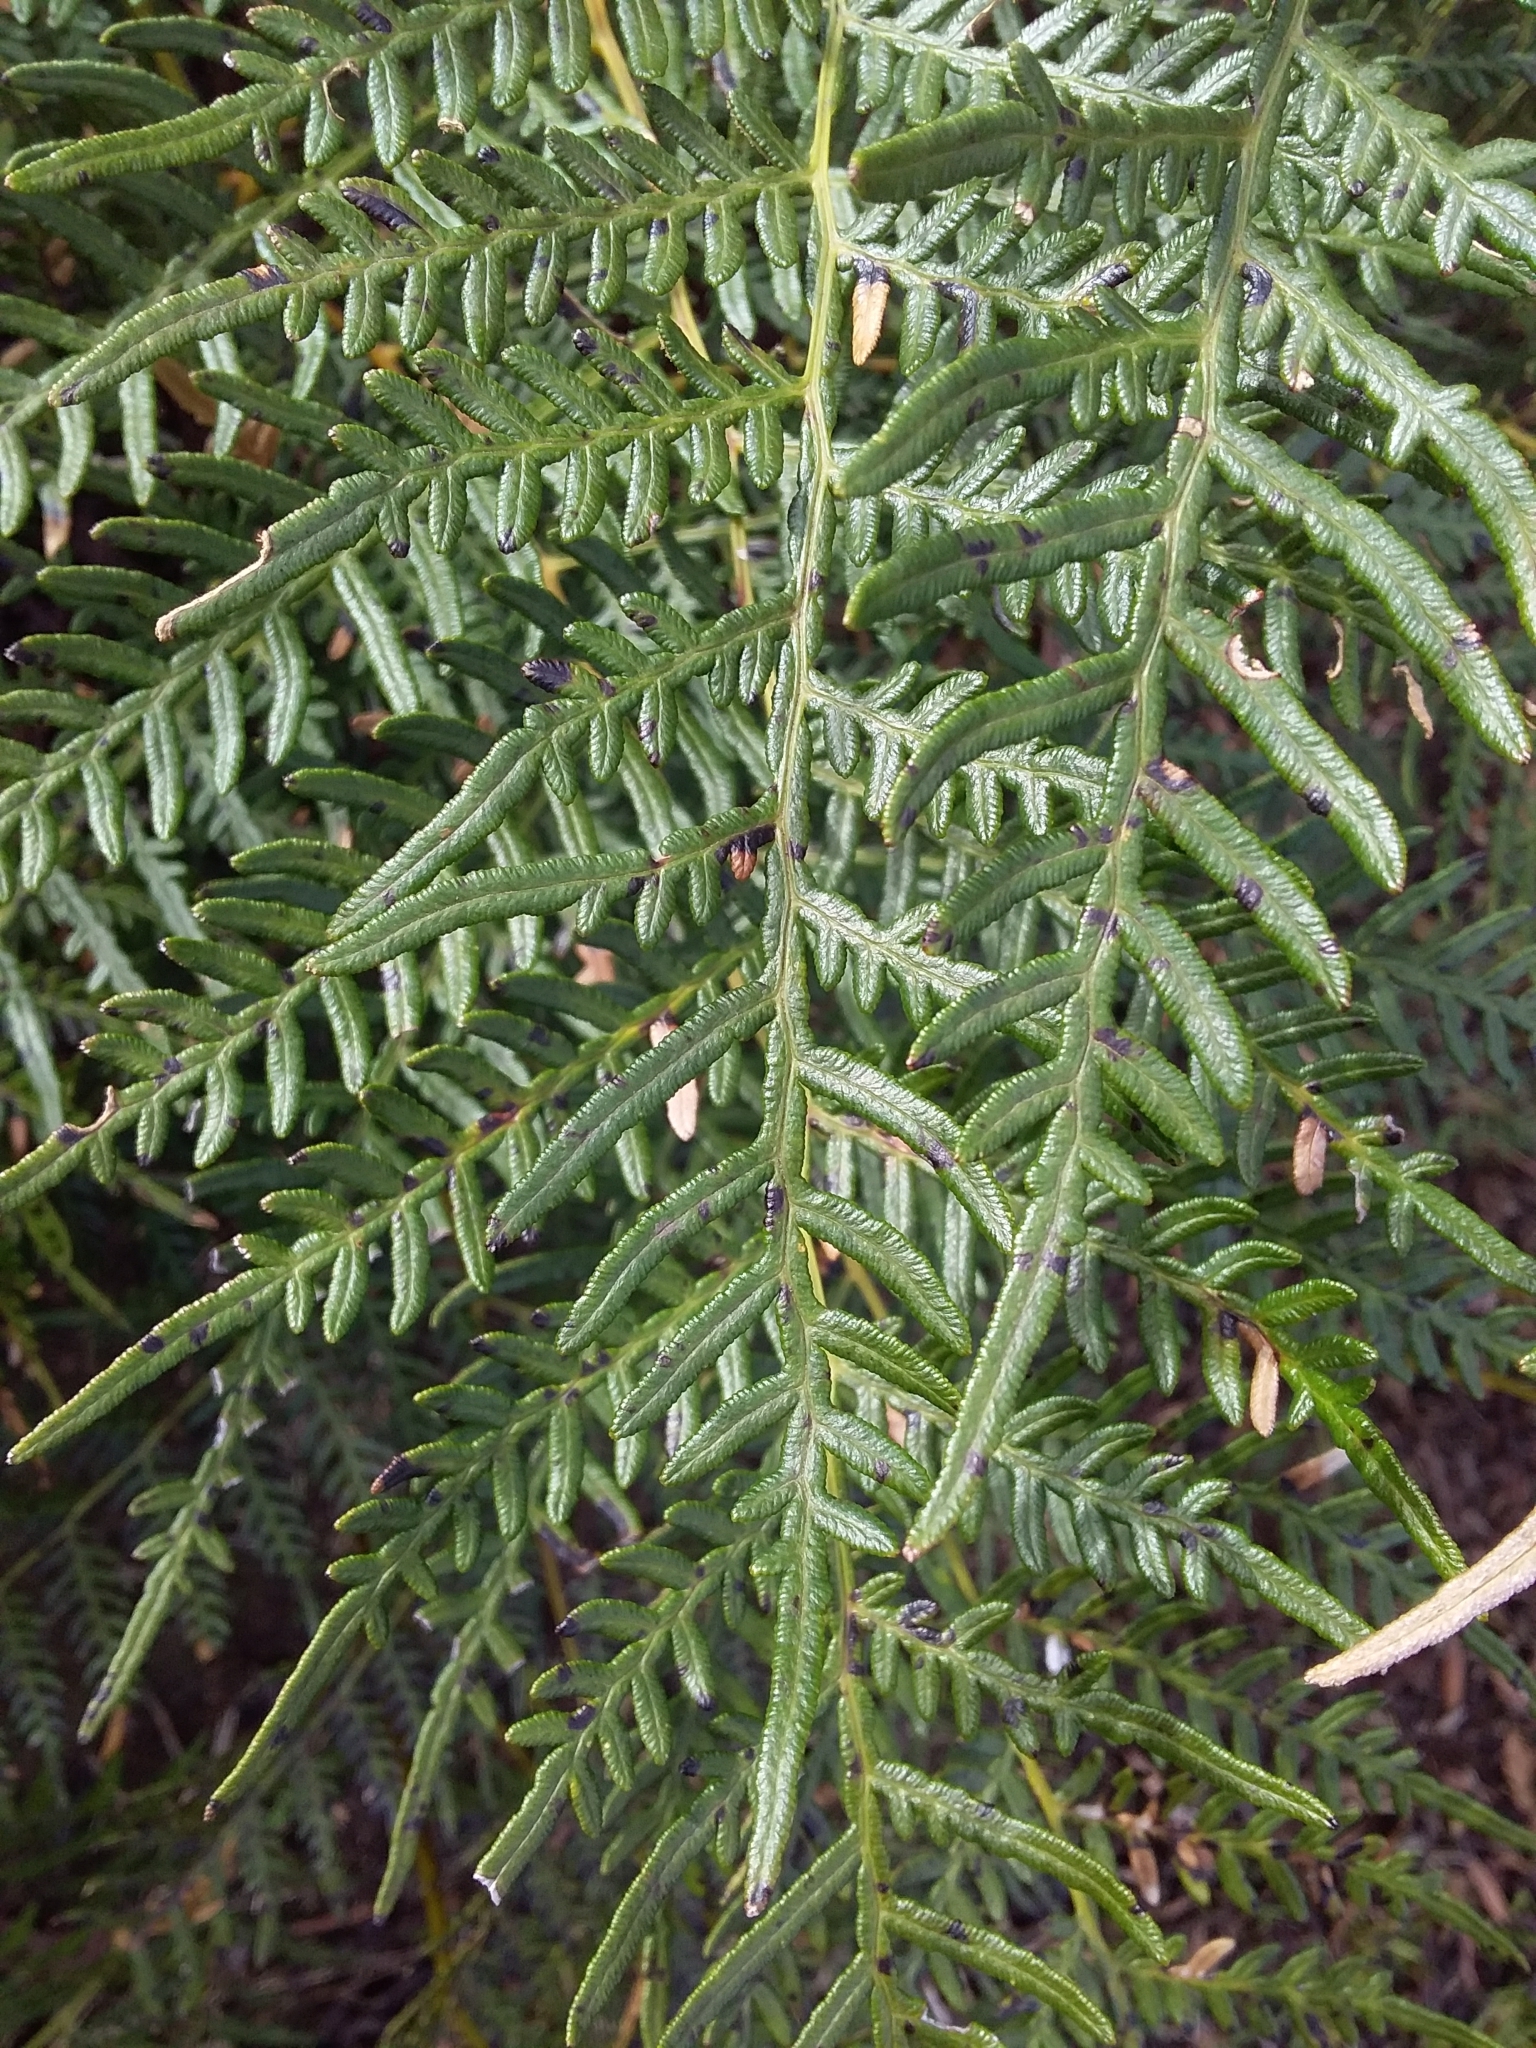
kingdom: Plantae
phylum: Tracheophyta
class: Polypodiopsida
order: Polypodiales
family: Dennstaedtiaceae
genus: Pteridium
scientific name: Pteridium esculentum
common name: Bracken fern
